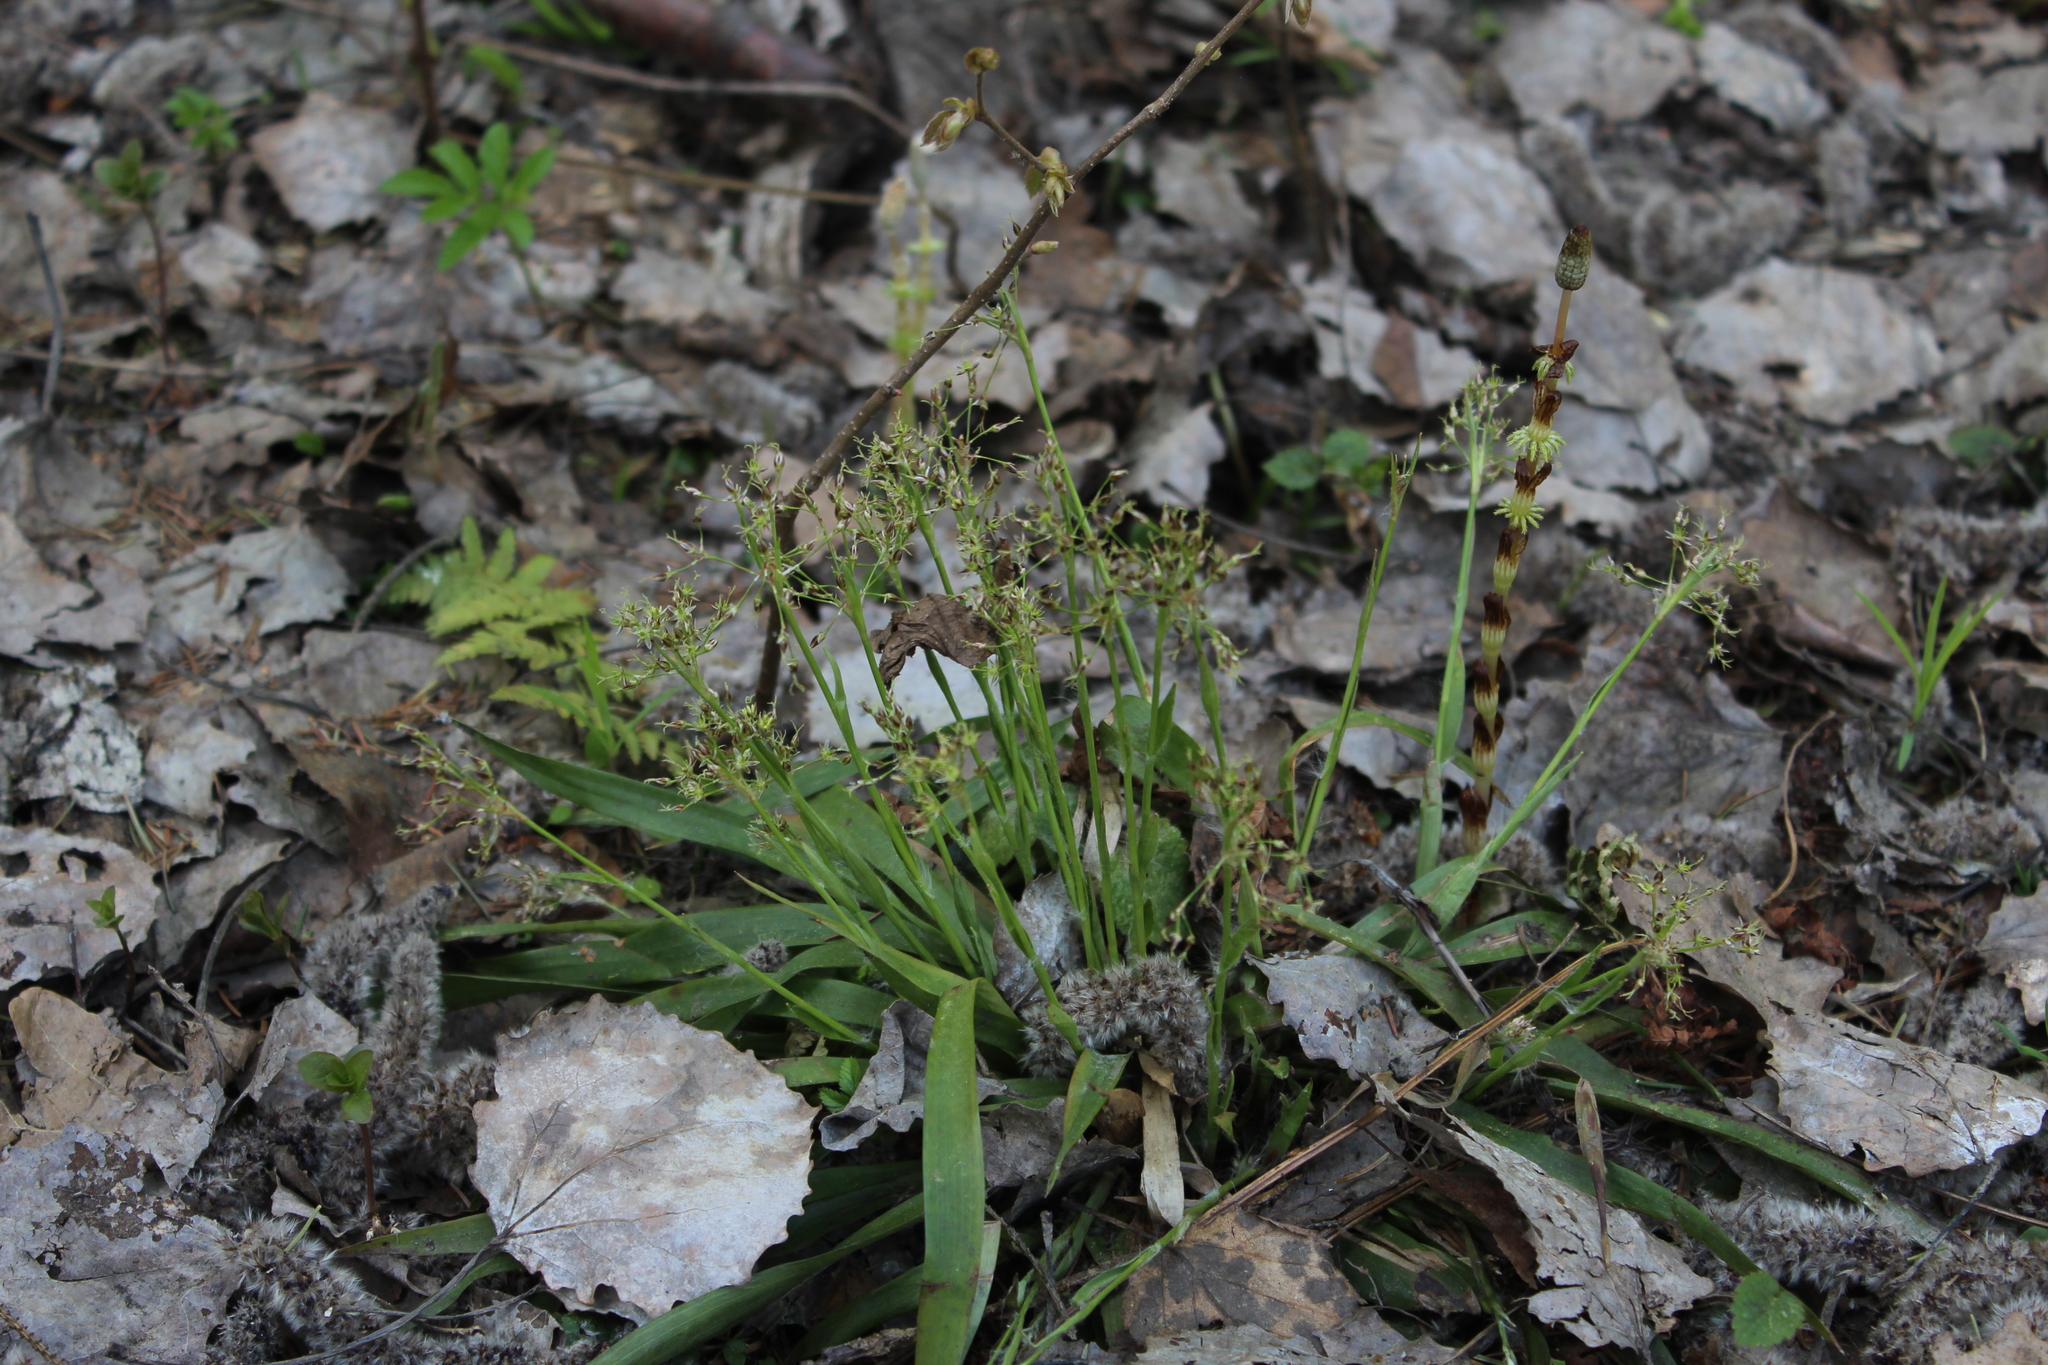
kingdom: Plantae
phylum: Tracheophyta
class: Liliopsida
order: Poales
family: Juncaceae
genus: Luzula
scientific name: Luzula pilosa
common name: Hairy wood-rush
